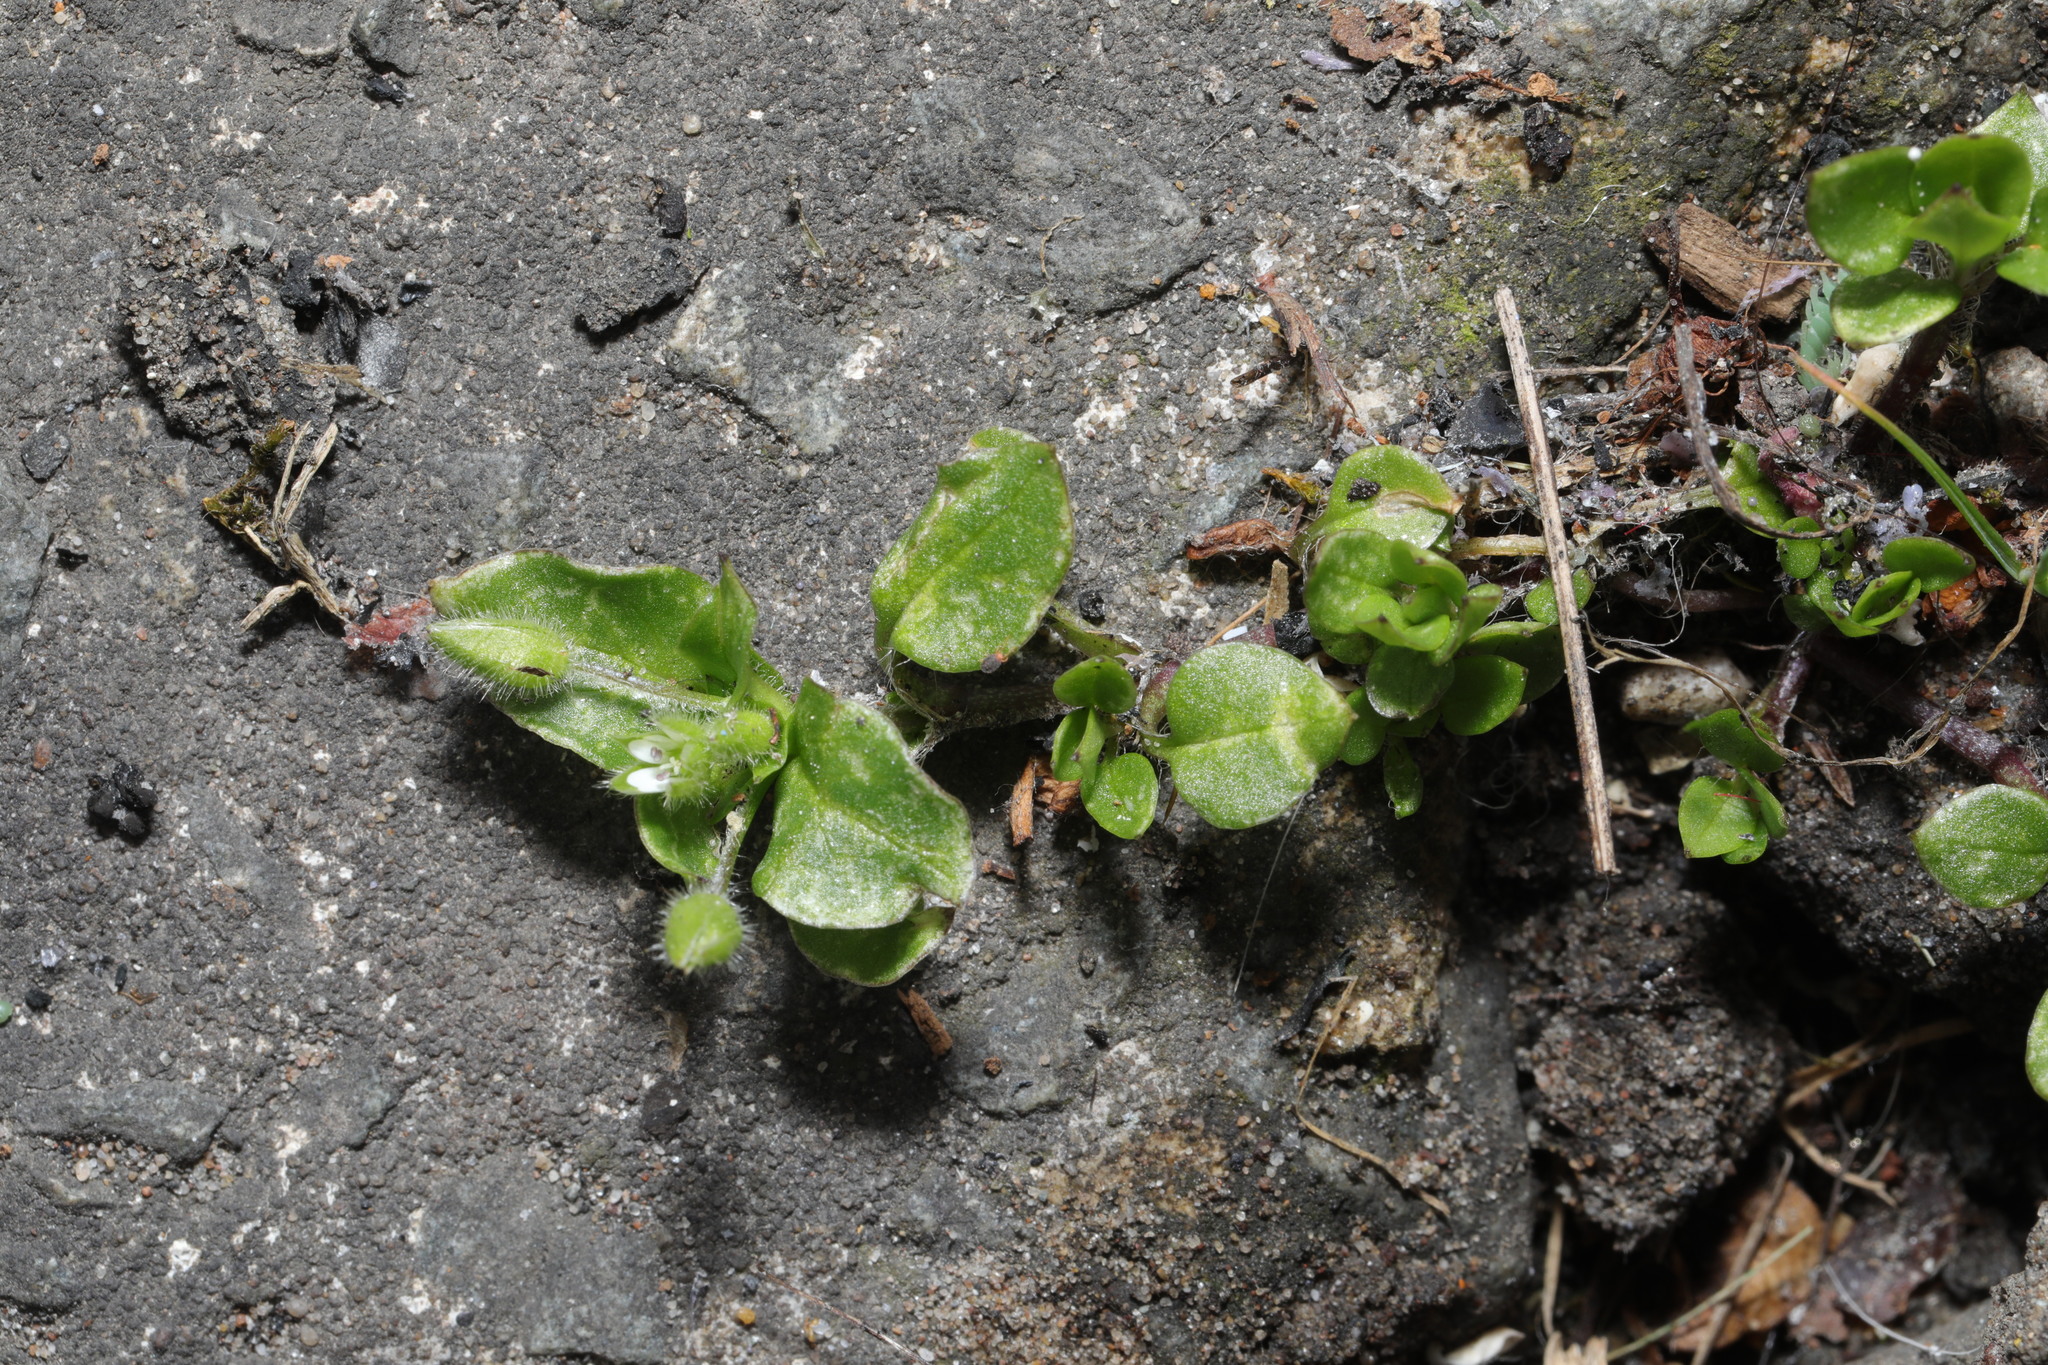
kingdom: Plantae
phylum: Tracheophyta
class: Magnoliopsida
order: Caryophyllales
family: Caryophyllaceae
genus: Stellaria
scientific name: Stellaria media
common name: Common chickweed
